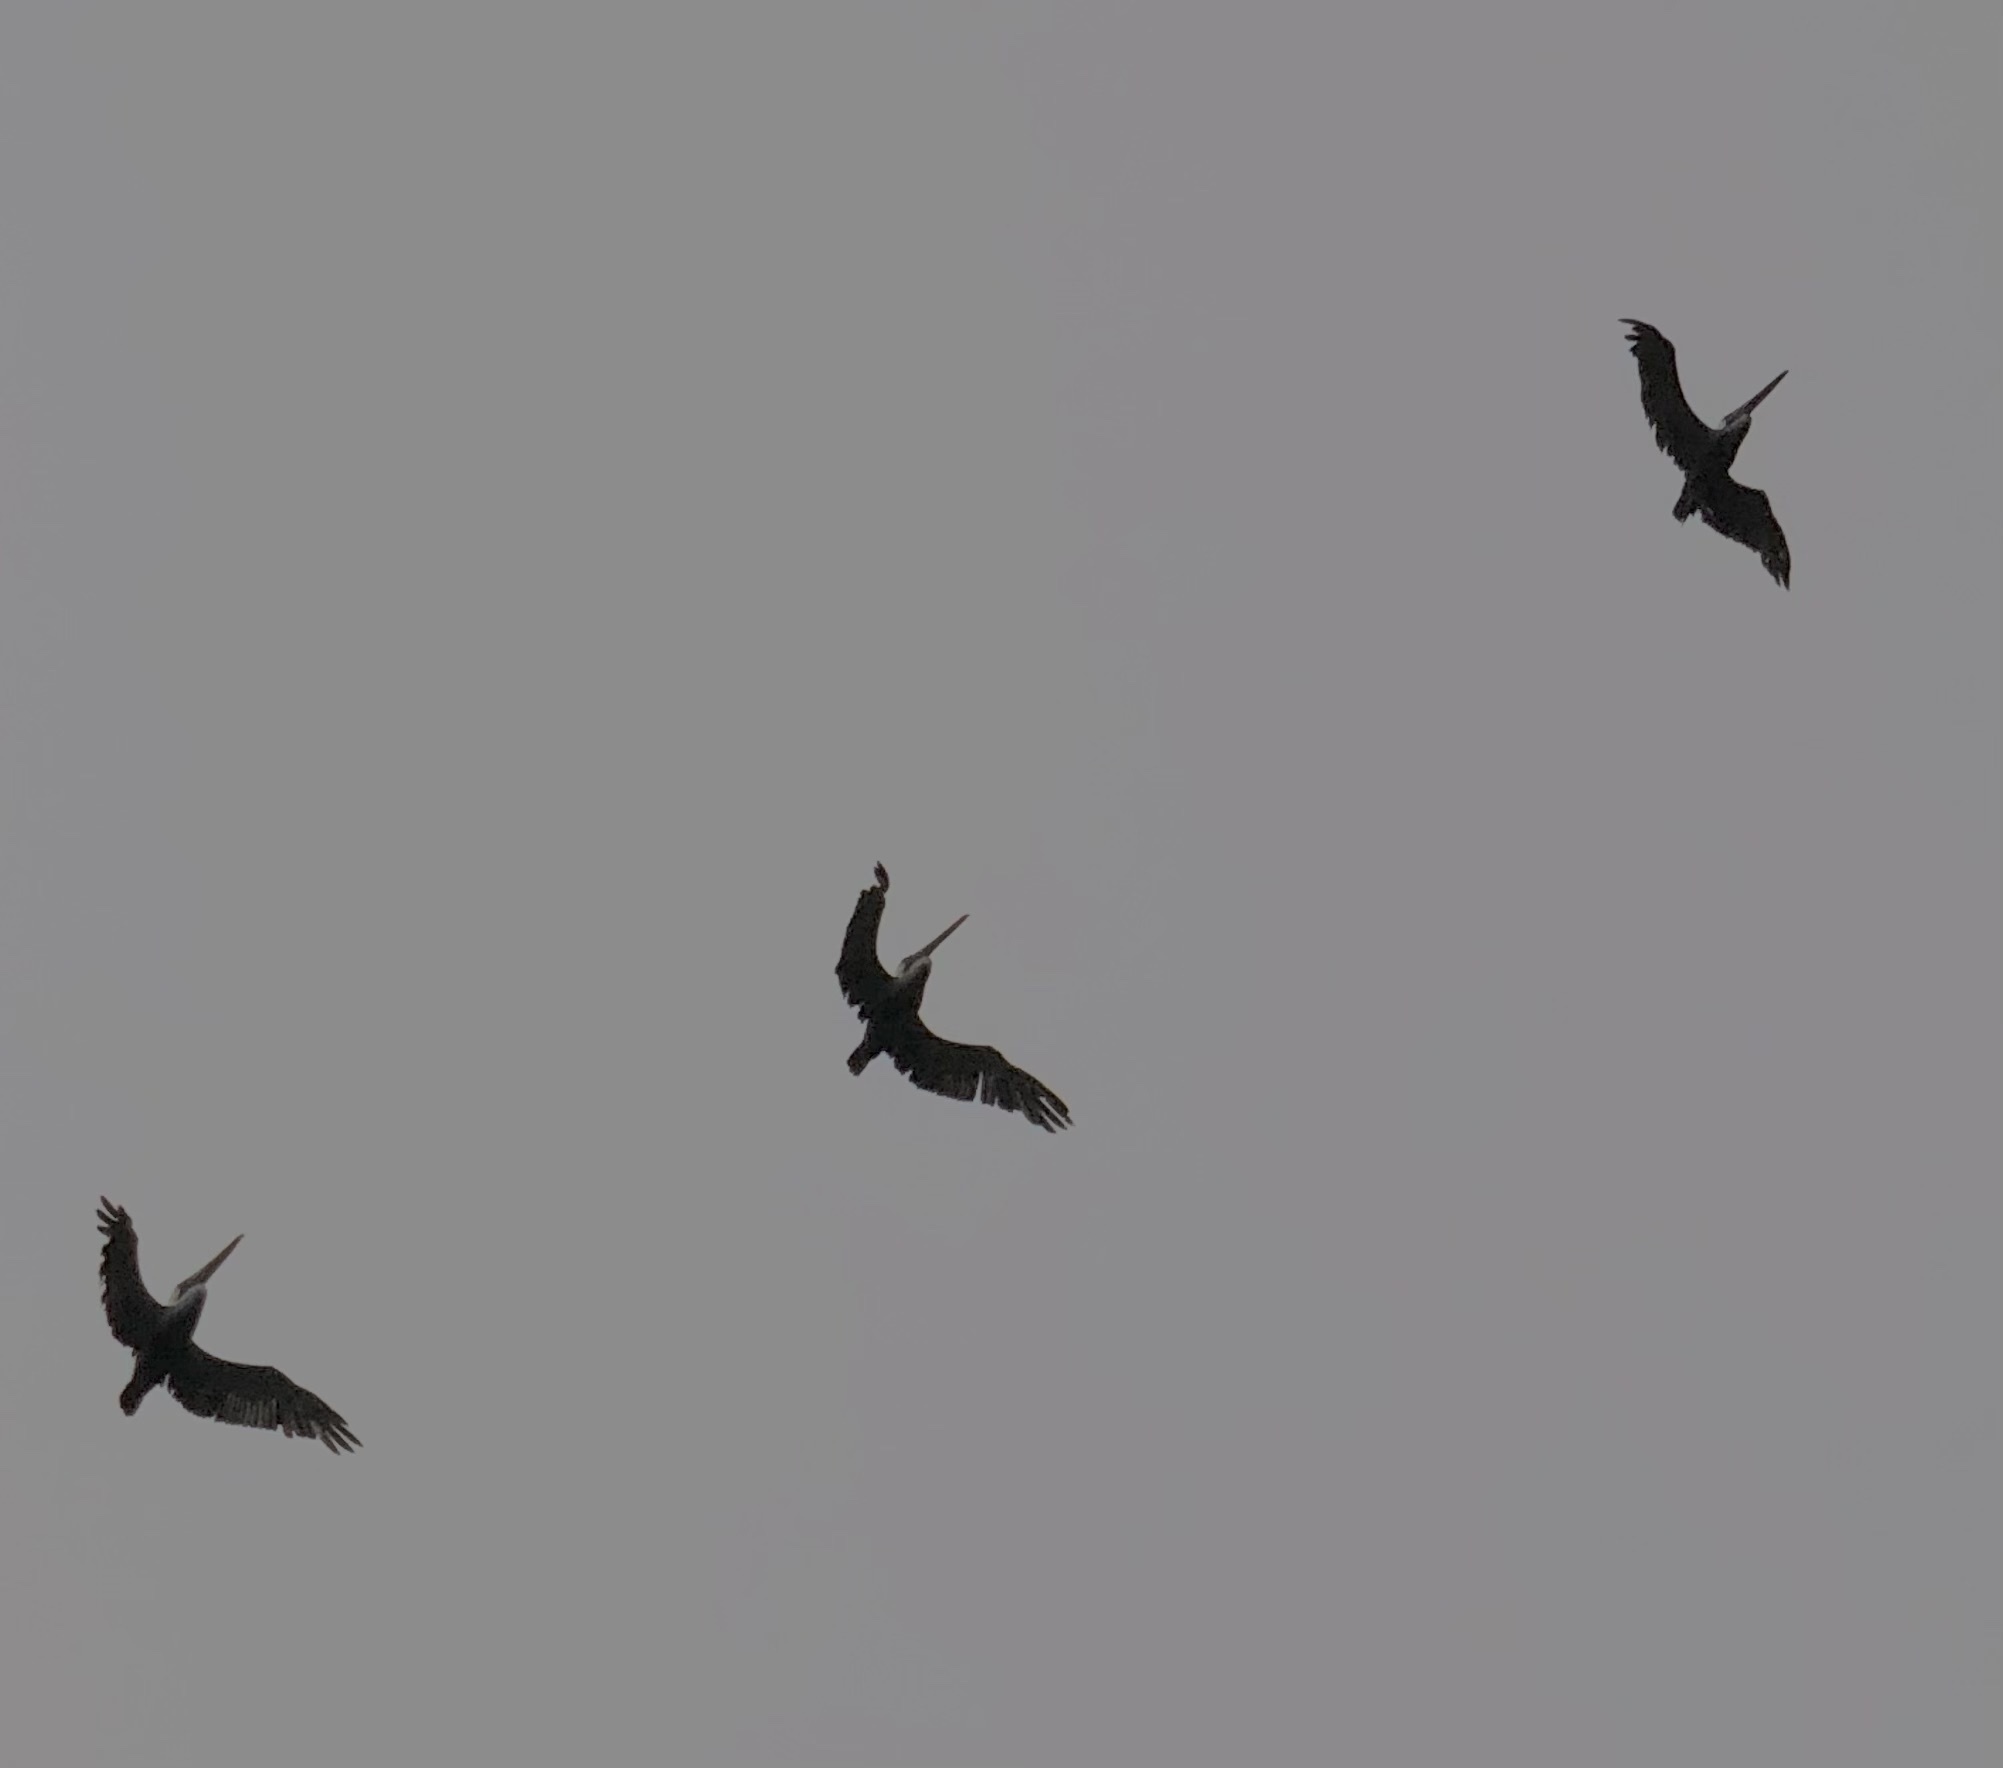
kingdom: Animalia
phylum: Chordata
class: Aves
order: Pelecaniformes
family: Pelecanidae
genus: Pelecanus
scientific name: Pelecanus occidentalis
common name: Brown pelican
